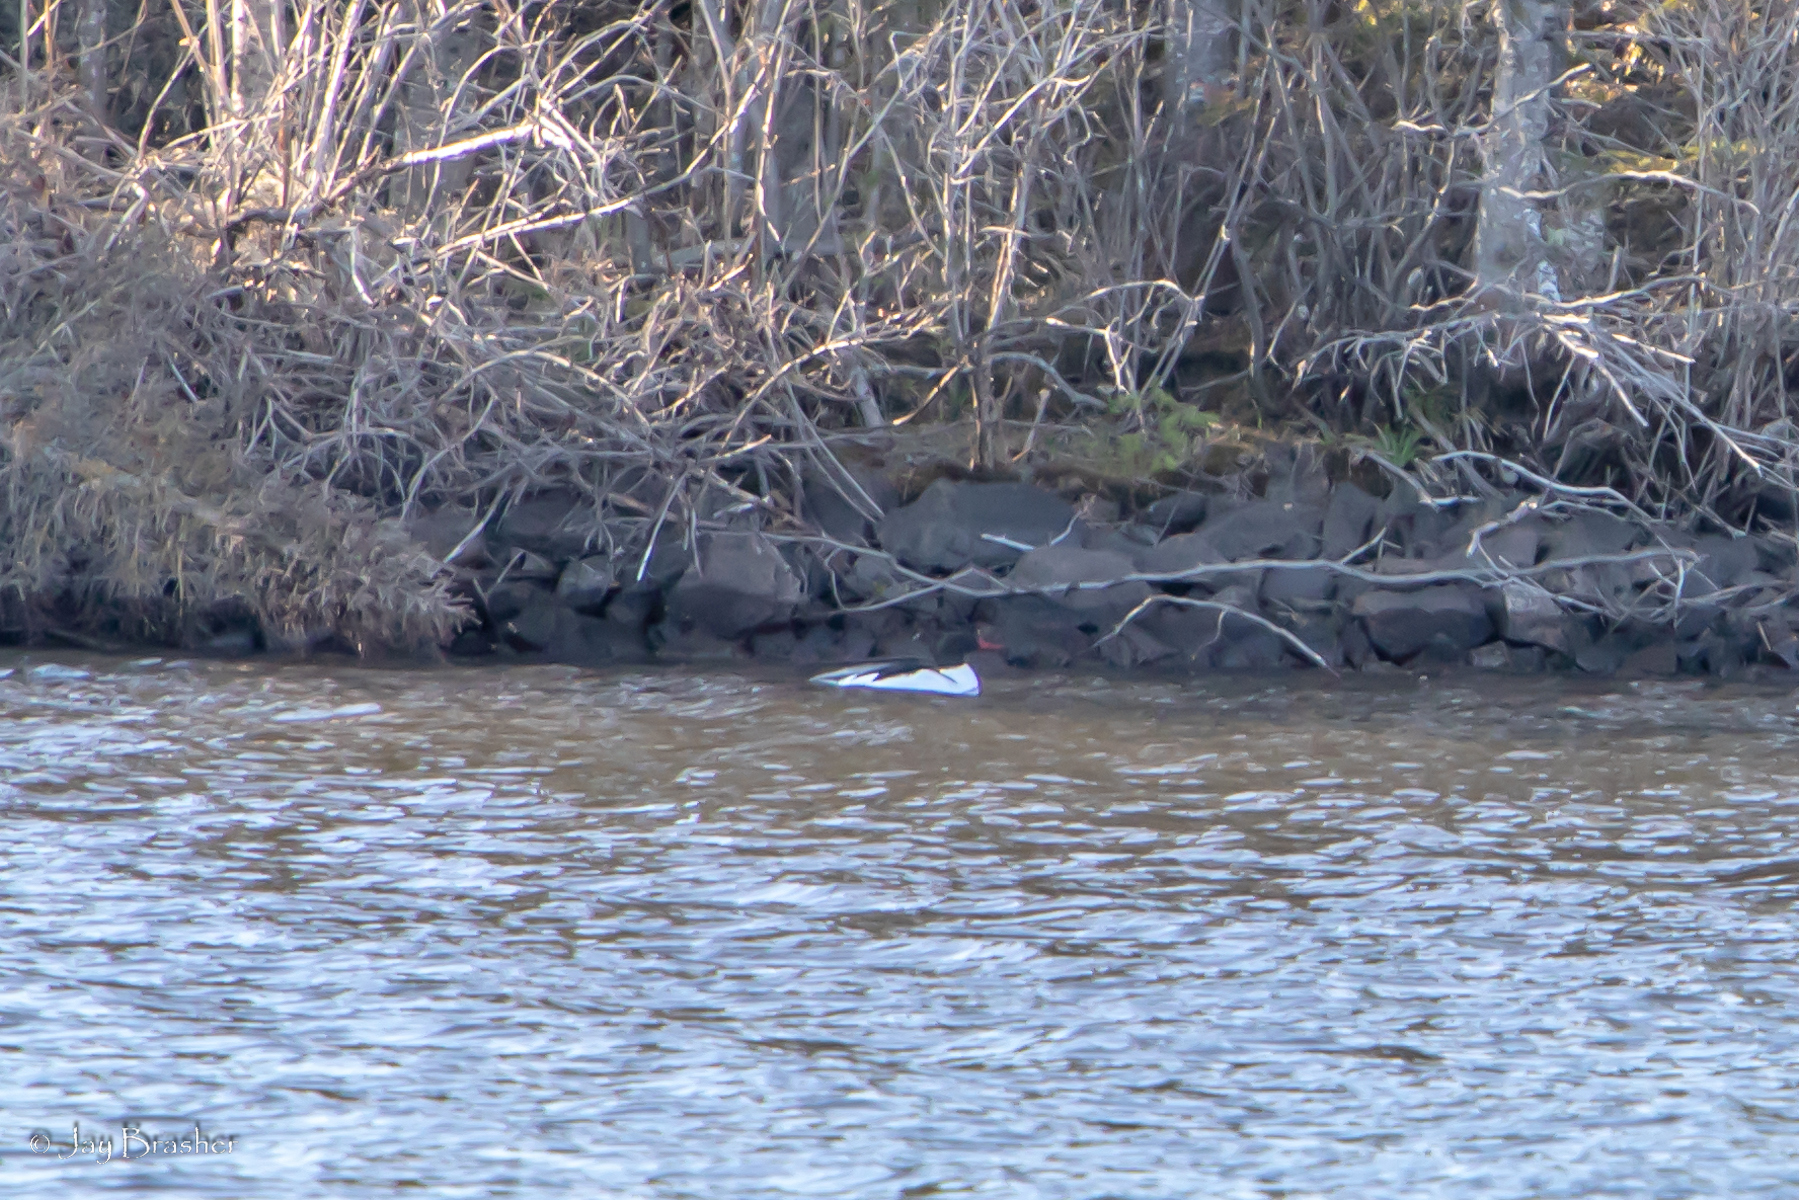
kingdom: Animalia
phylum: Chordata
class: Aves
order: Anseriformes
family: Anatidae
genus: Mergus
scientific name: Mergus merganser
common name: Common merganser
